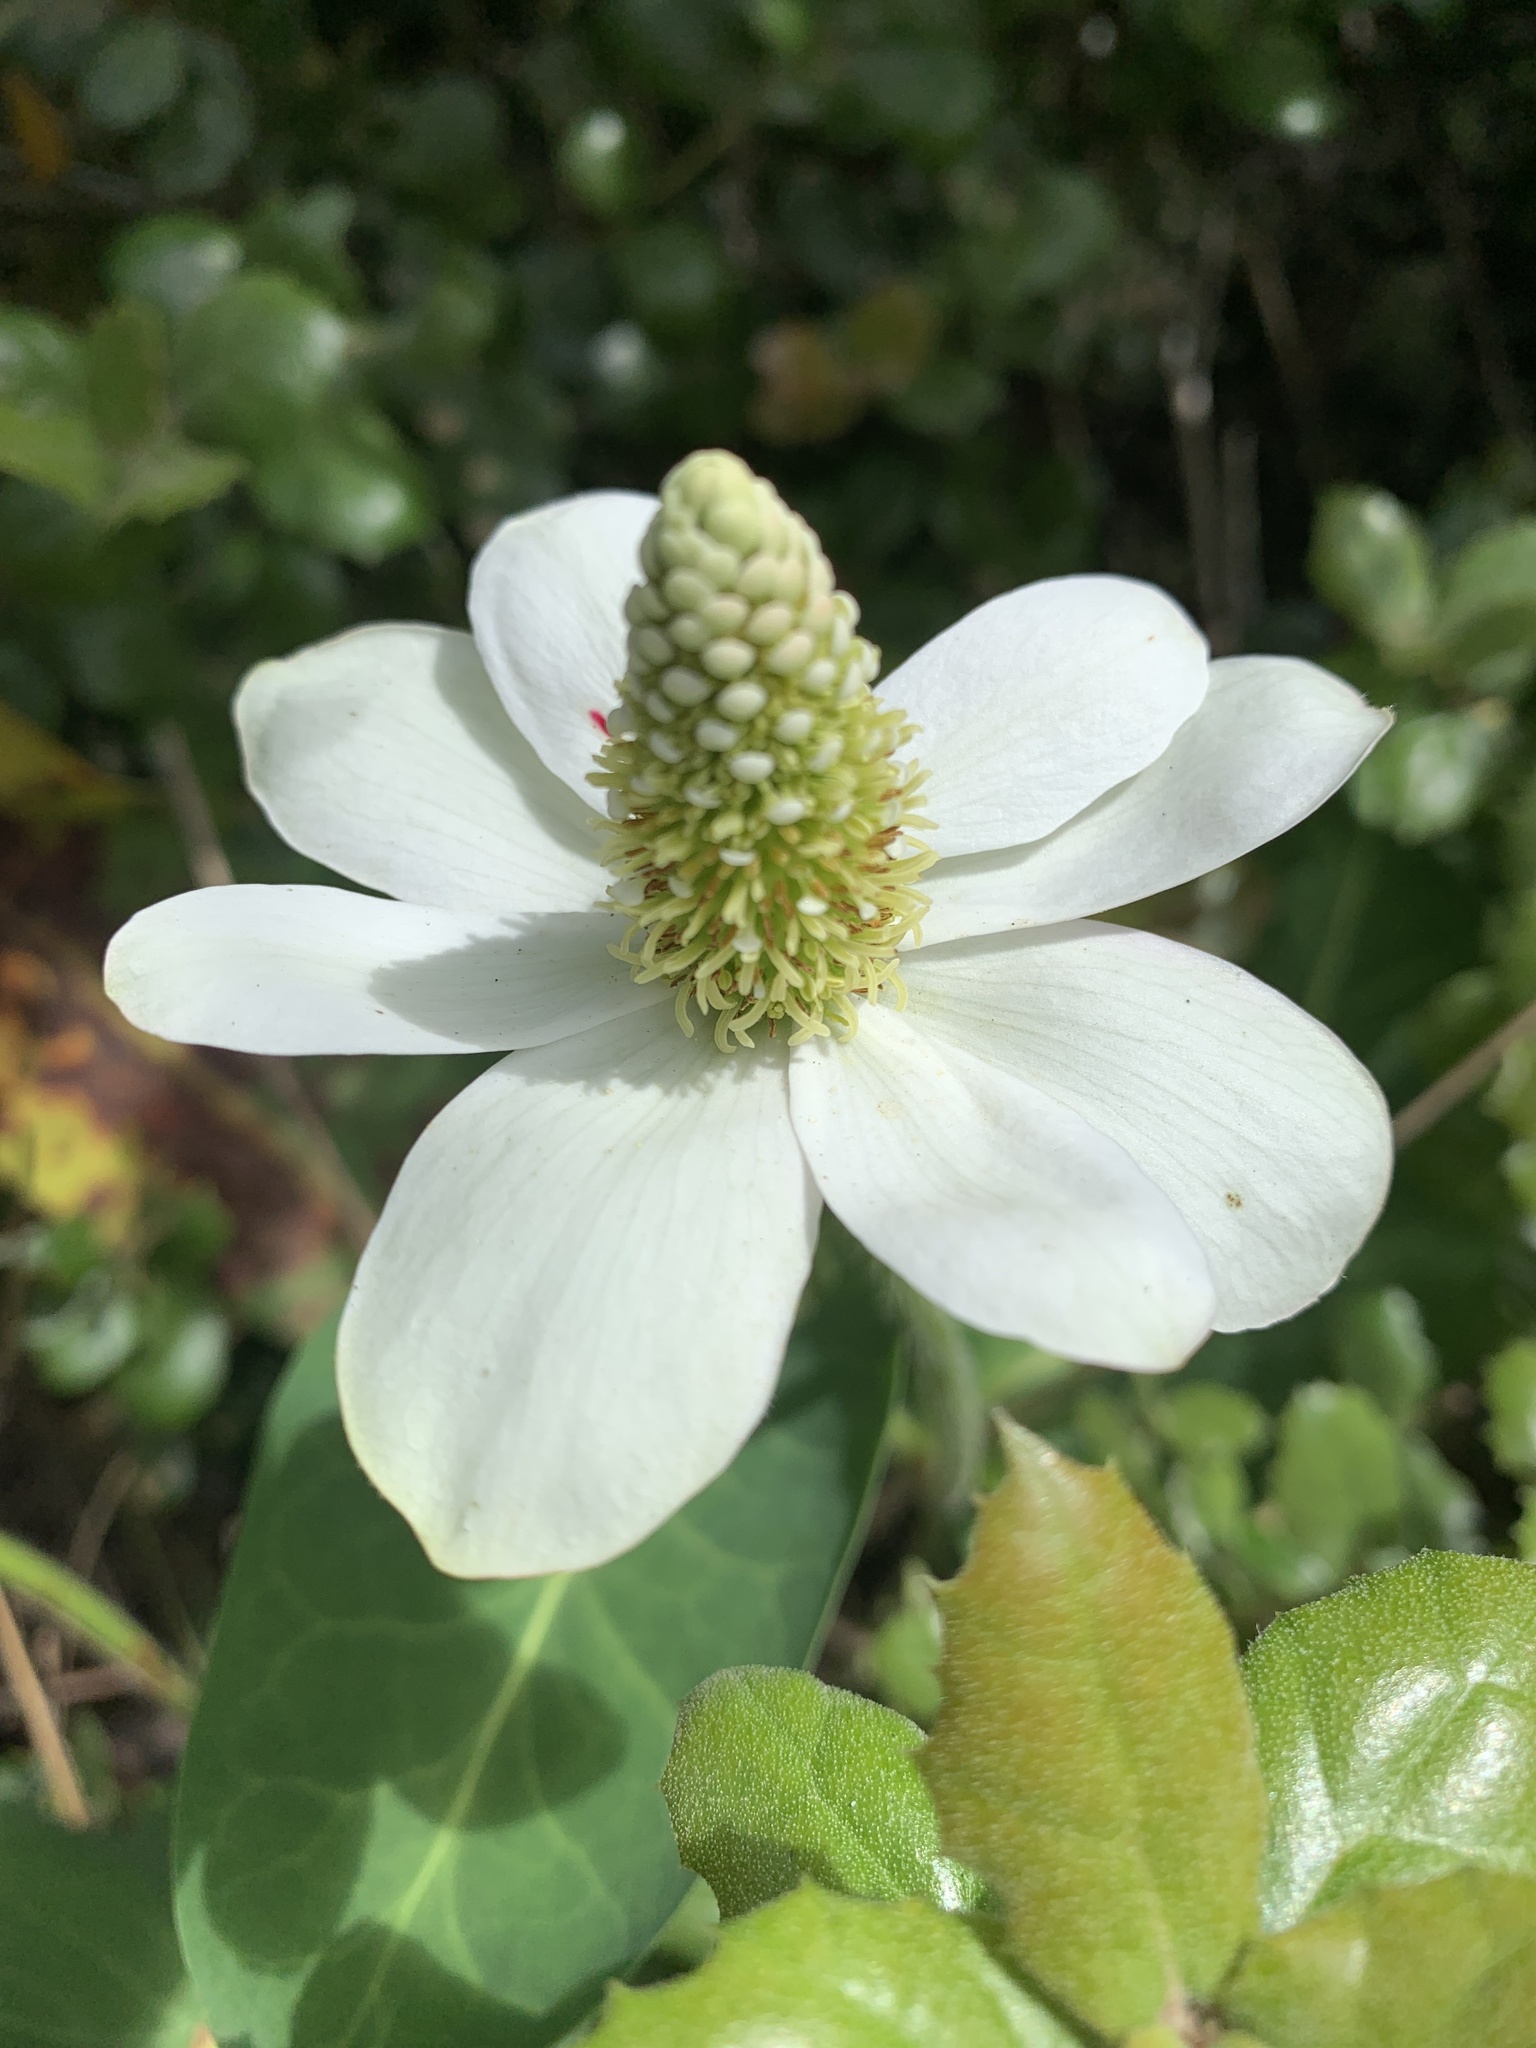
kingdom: Plantae
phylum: Tracheophyta
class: Magnoliopsida
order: Piperales
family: Saururaceae
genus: Anemopsis
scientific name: Anemopsis californica
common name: Apache-beads
